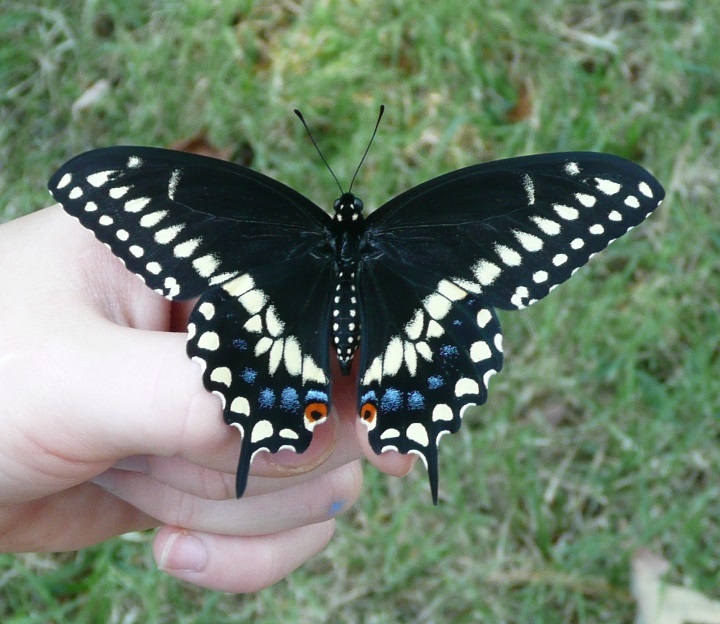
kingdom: Animalia
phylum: Arthropoda
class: Insecta
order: Lepidoptera
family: Papilionidae
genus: Papilio
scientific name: Papilio polyxenes
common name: Black swallowtail
